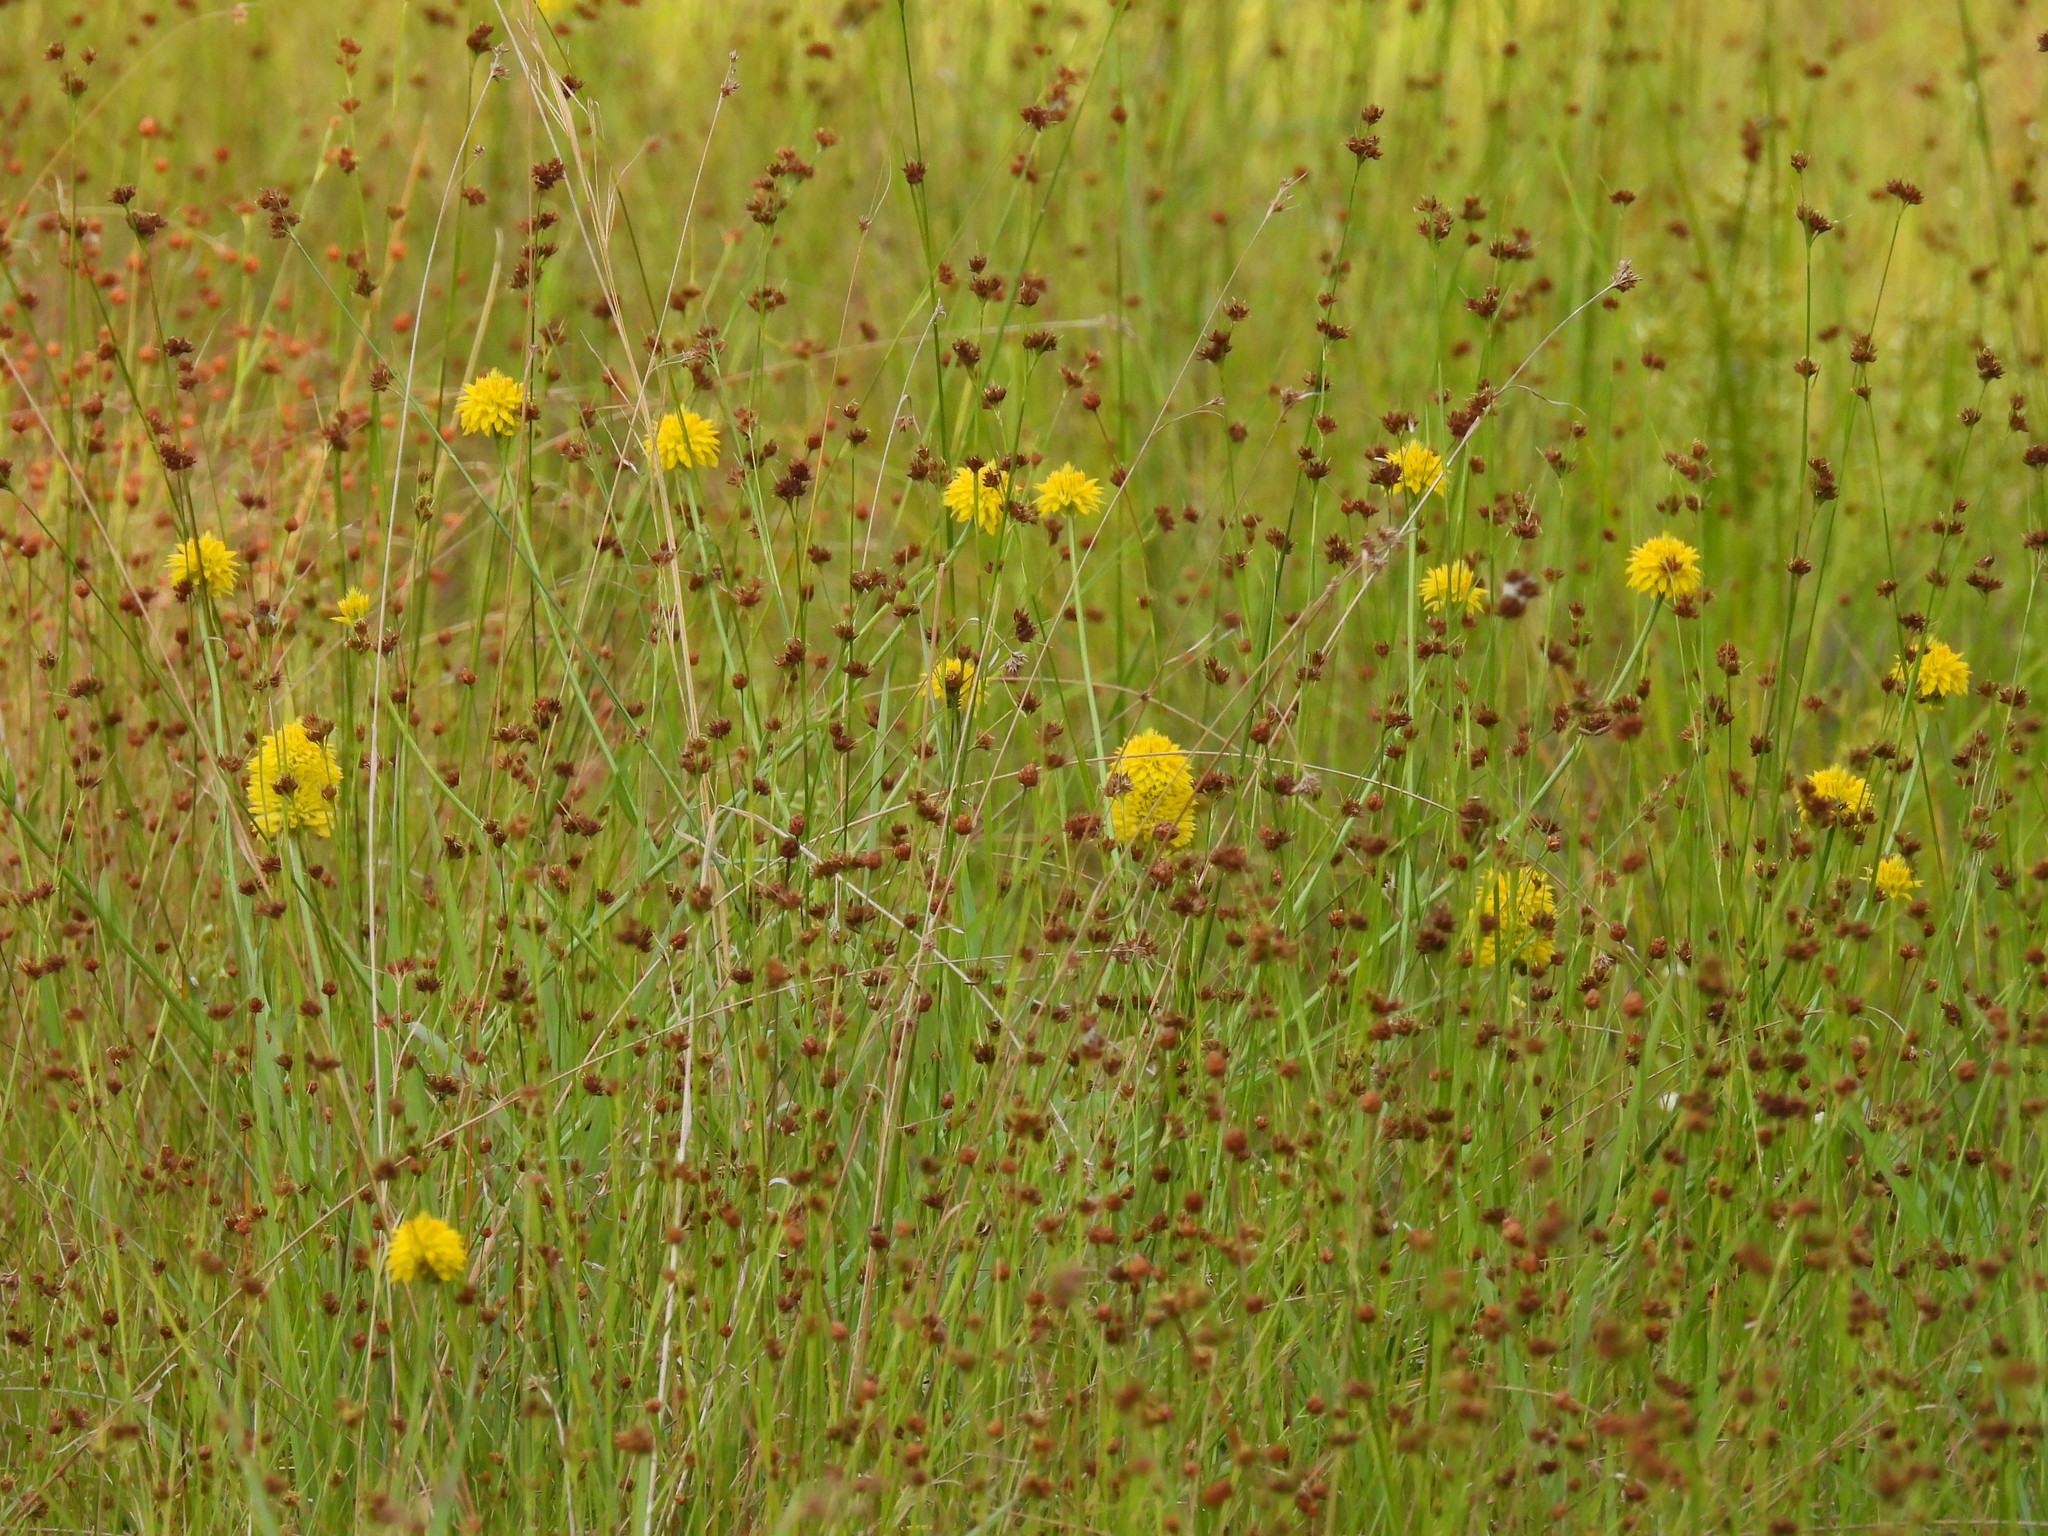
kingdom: Plantae
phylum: Tracheophyta
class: Magnoliopsida
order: Fabales
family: Polygalaceae
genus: Polygala
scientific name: Polygala rugelii
